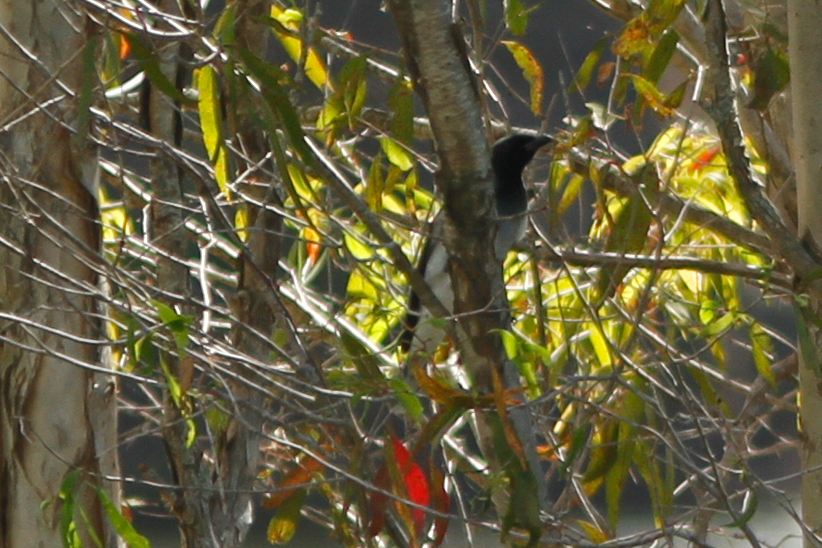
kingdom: Animalia
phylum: Chordata
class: Aves
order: Passeriformes
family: Campephagidae
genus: Coracina
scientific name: Coracina novaehollandiae
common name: Black-faced cuckooshrike
